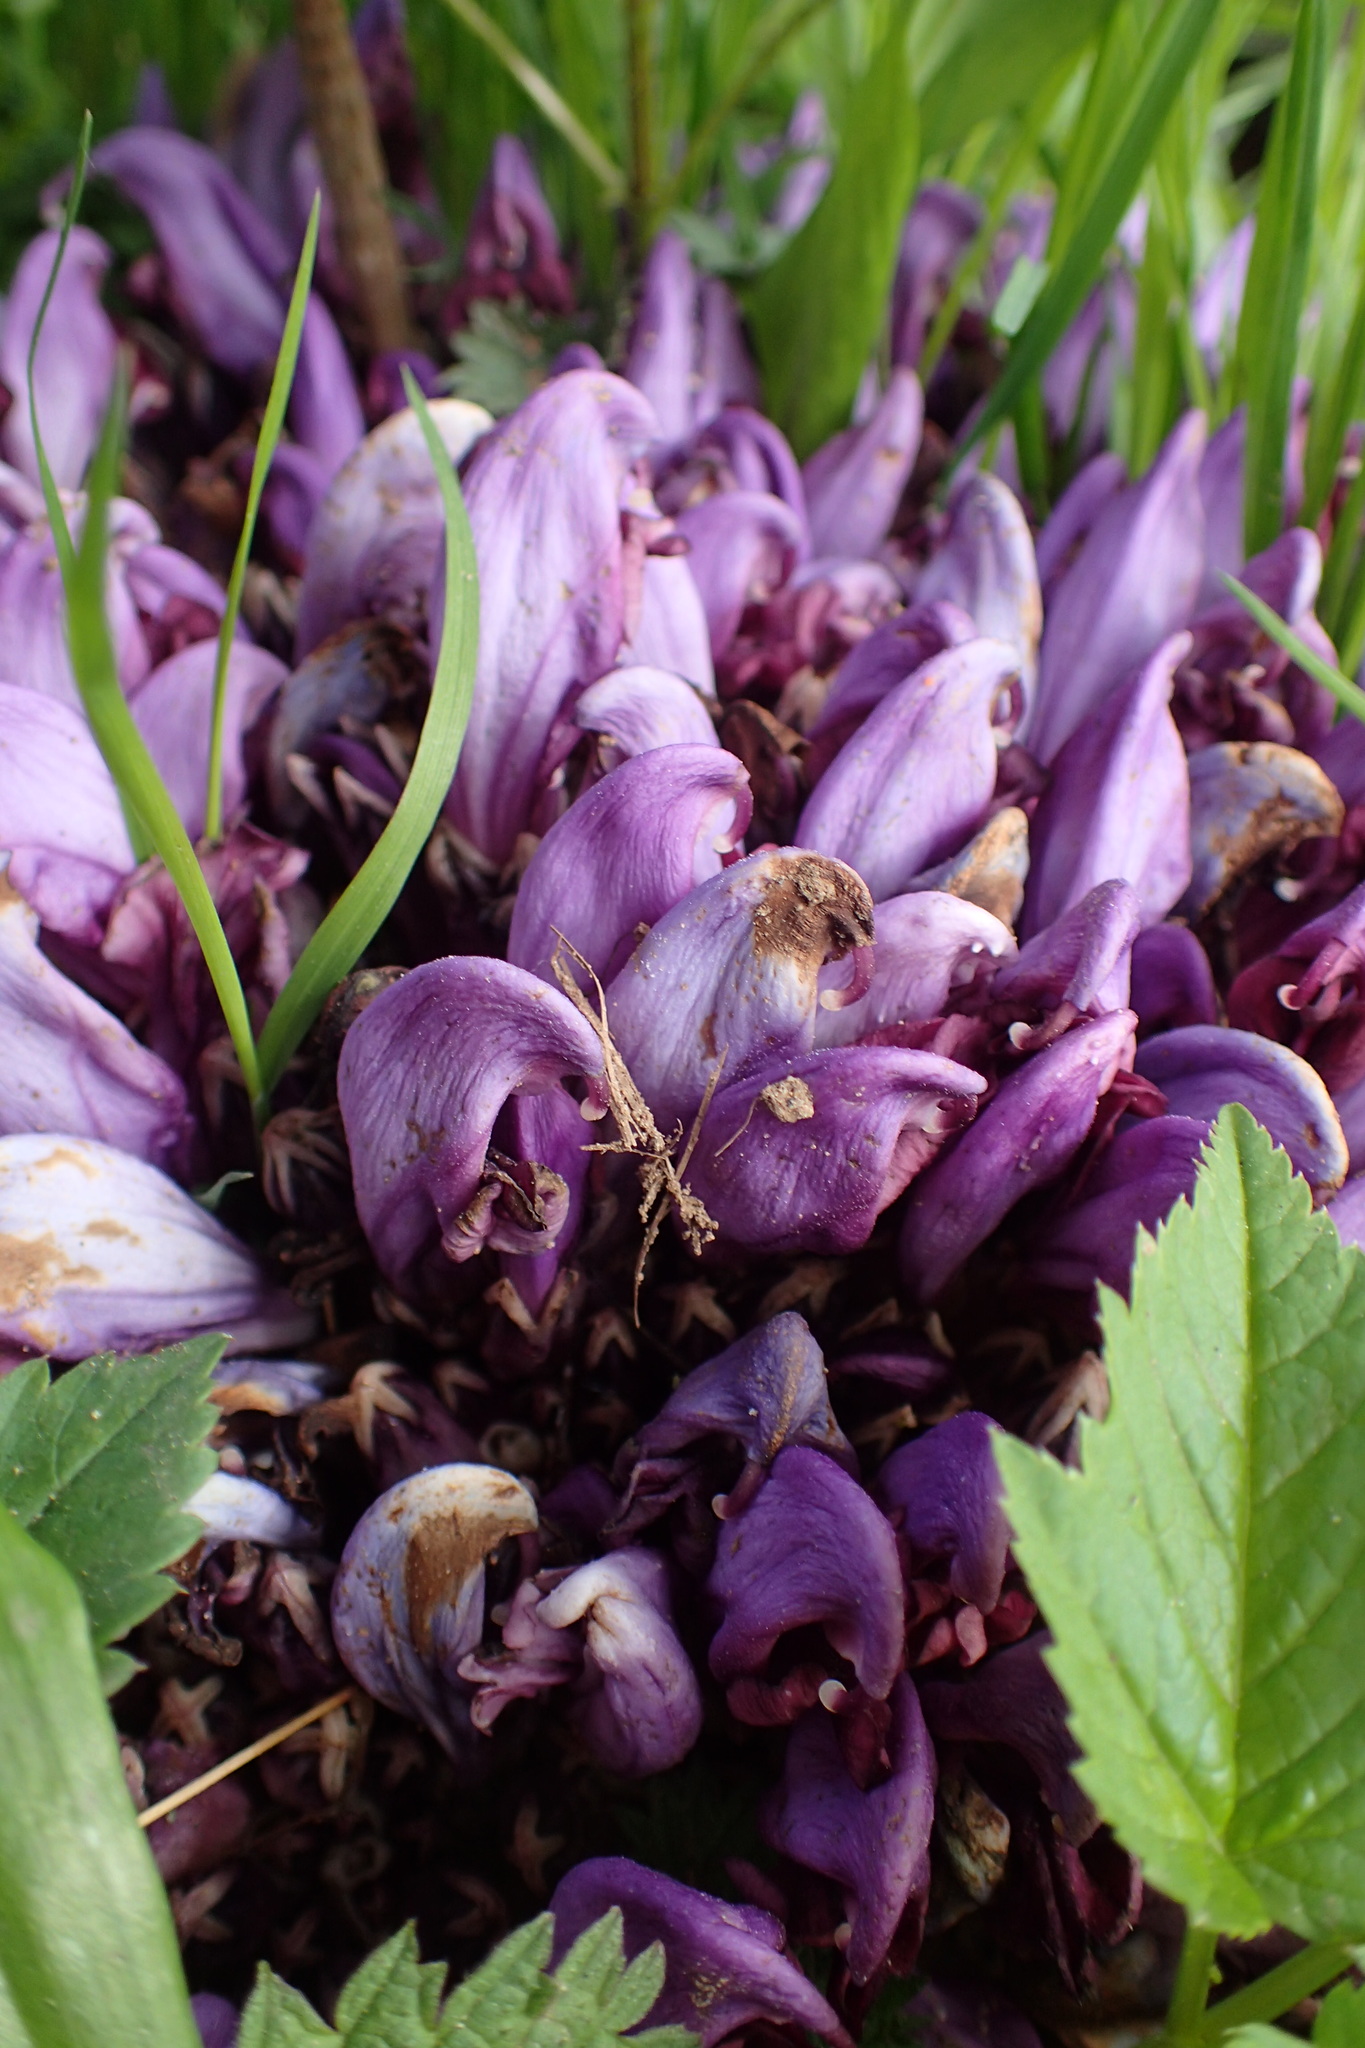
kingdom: Plantae
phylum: Tracheophyta
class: Magnoliopsida
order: Lamiales
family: Orobanchaceae
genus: Lathraea
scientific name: Lathraea clandestina
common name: Purple toothwort
